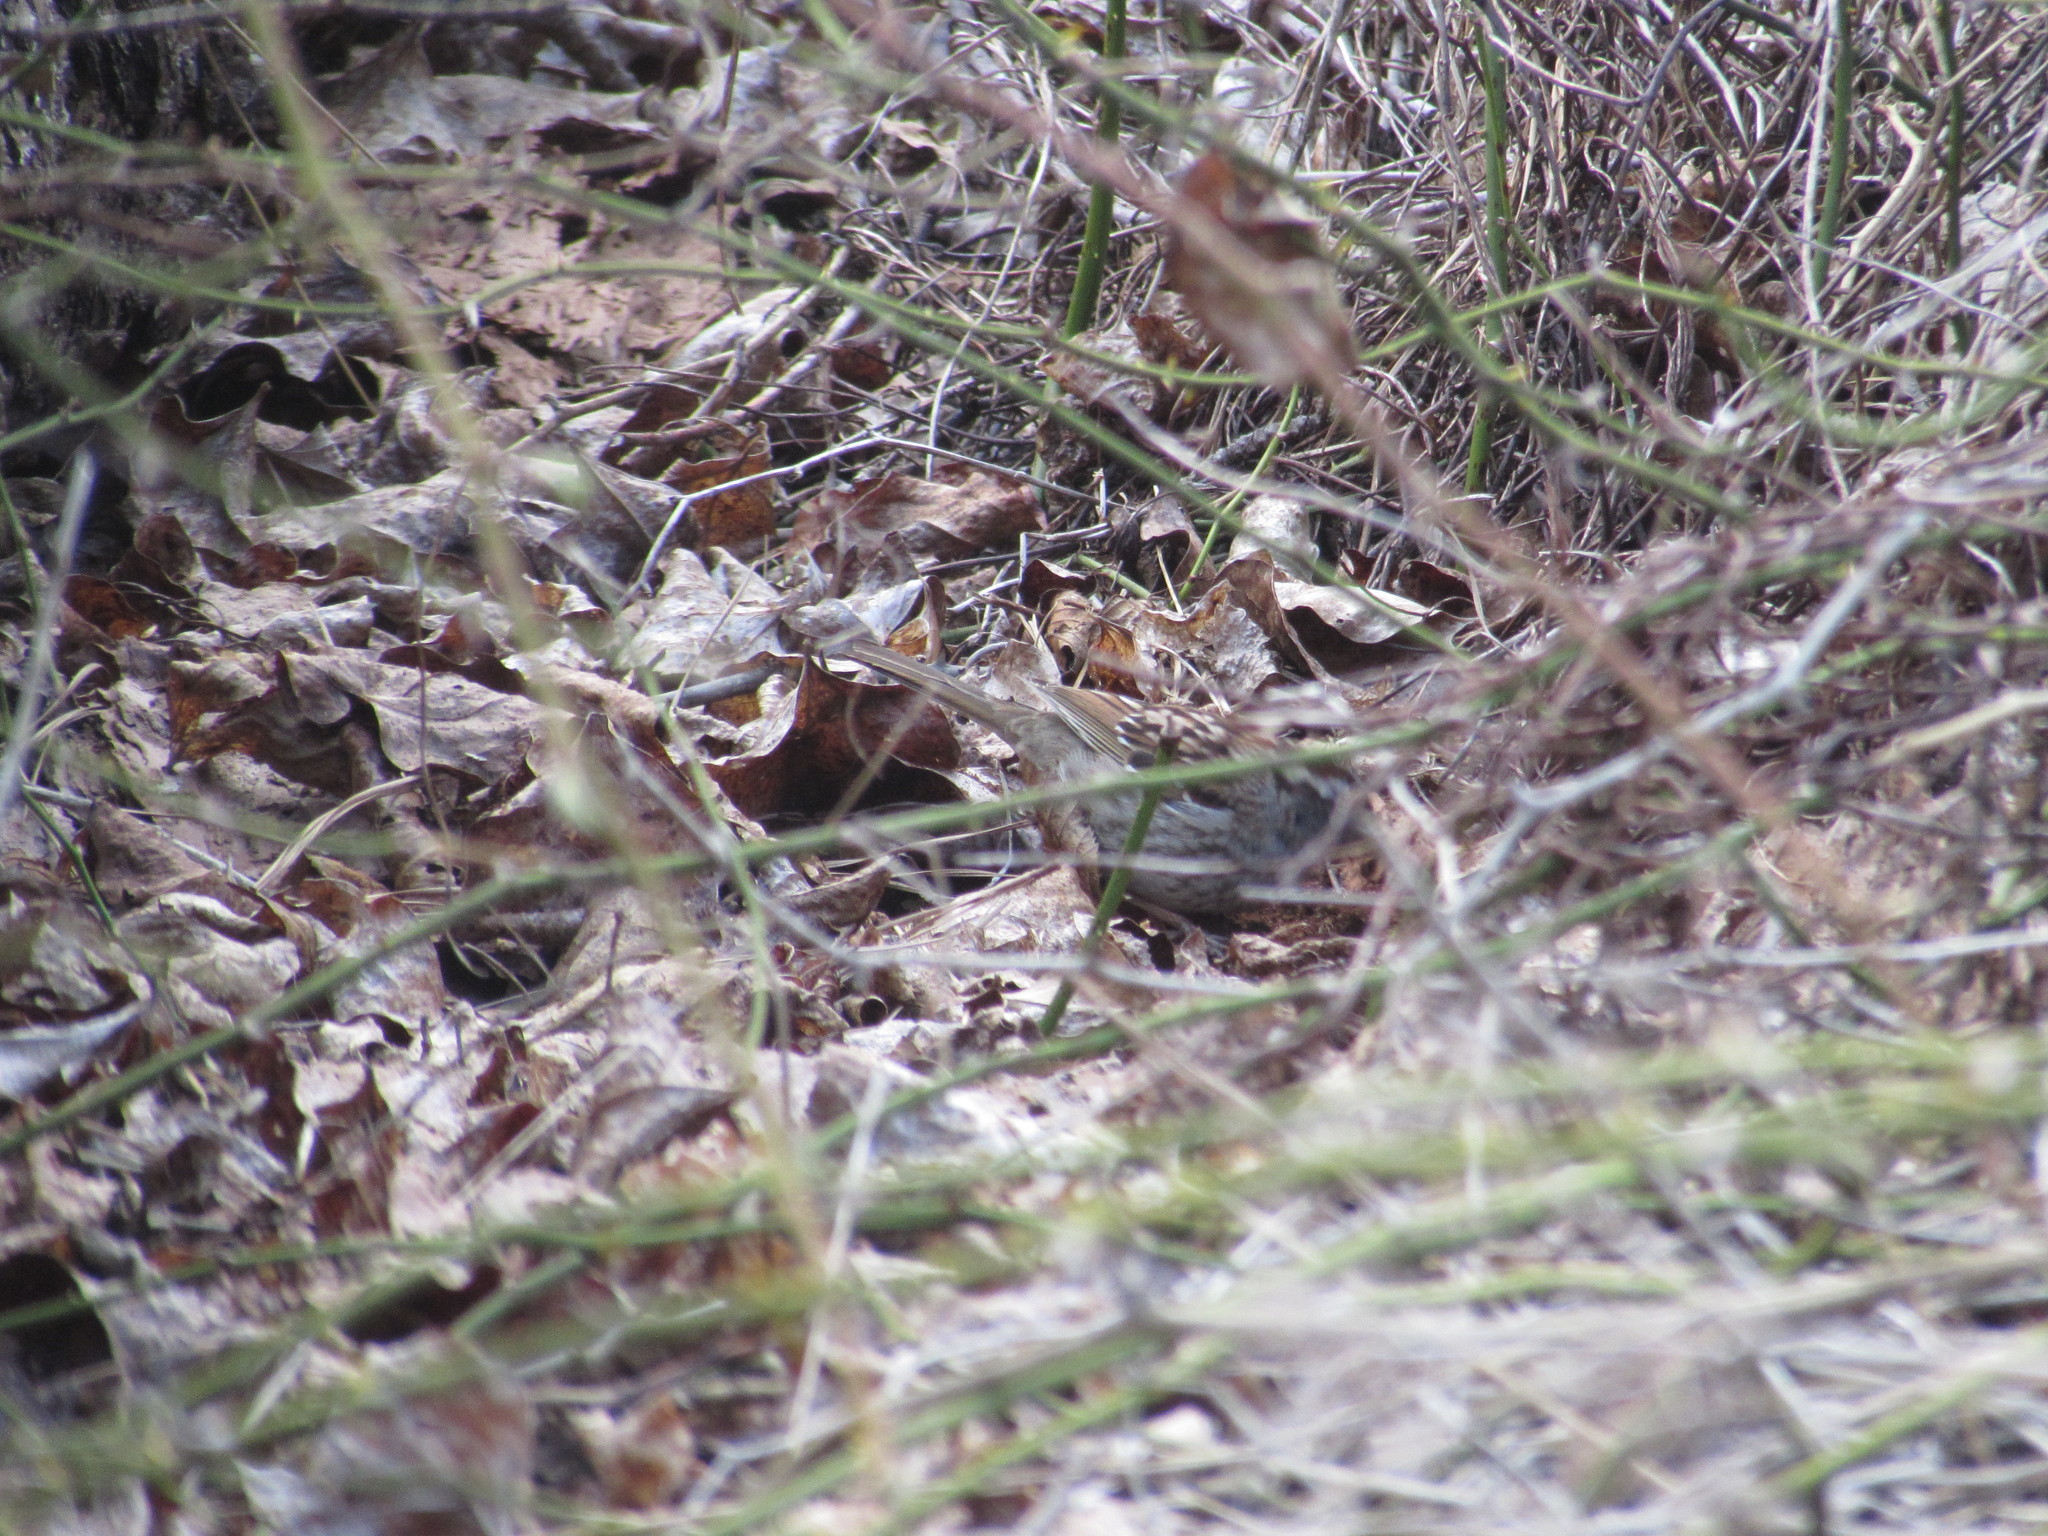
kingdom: Animalia
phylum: Chordata
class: Aves
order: Passeriformes
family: Passerellidae
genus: Zonotrichia
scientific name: Zonotrichia albicollis
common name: White-throated sparrow
